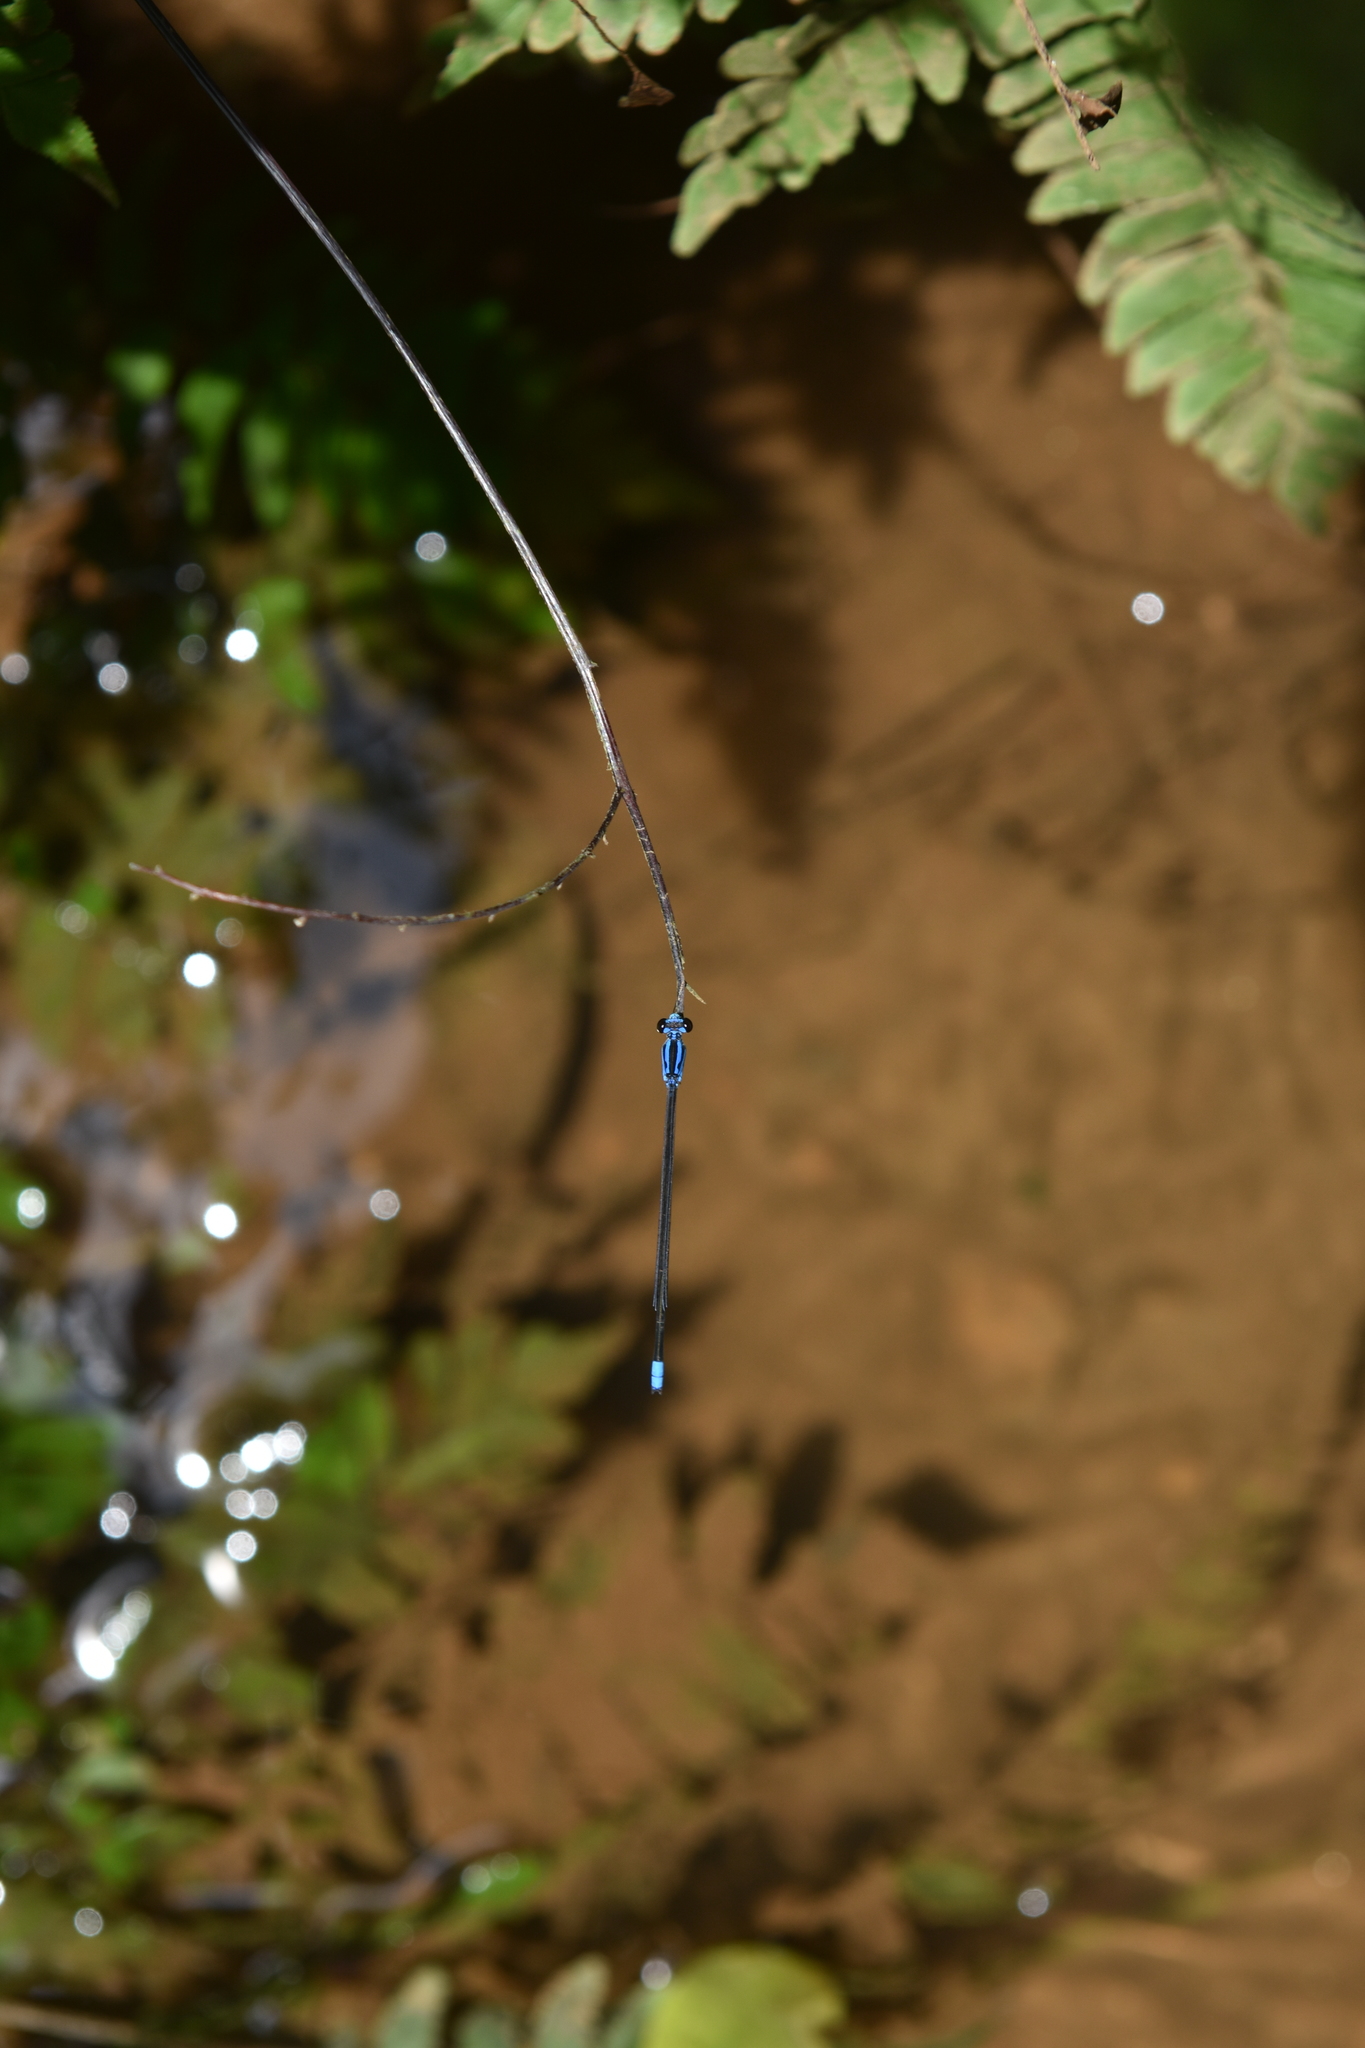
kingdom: Animalia
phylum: Arthropoda
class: Insecta
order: Odonata
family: Coenagrionidae
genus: Archibasis
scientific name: Archibasis oscillans
